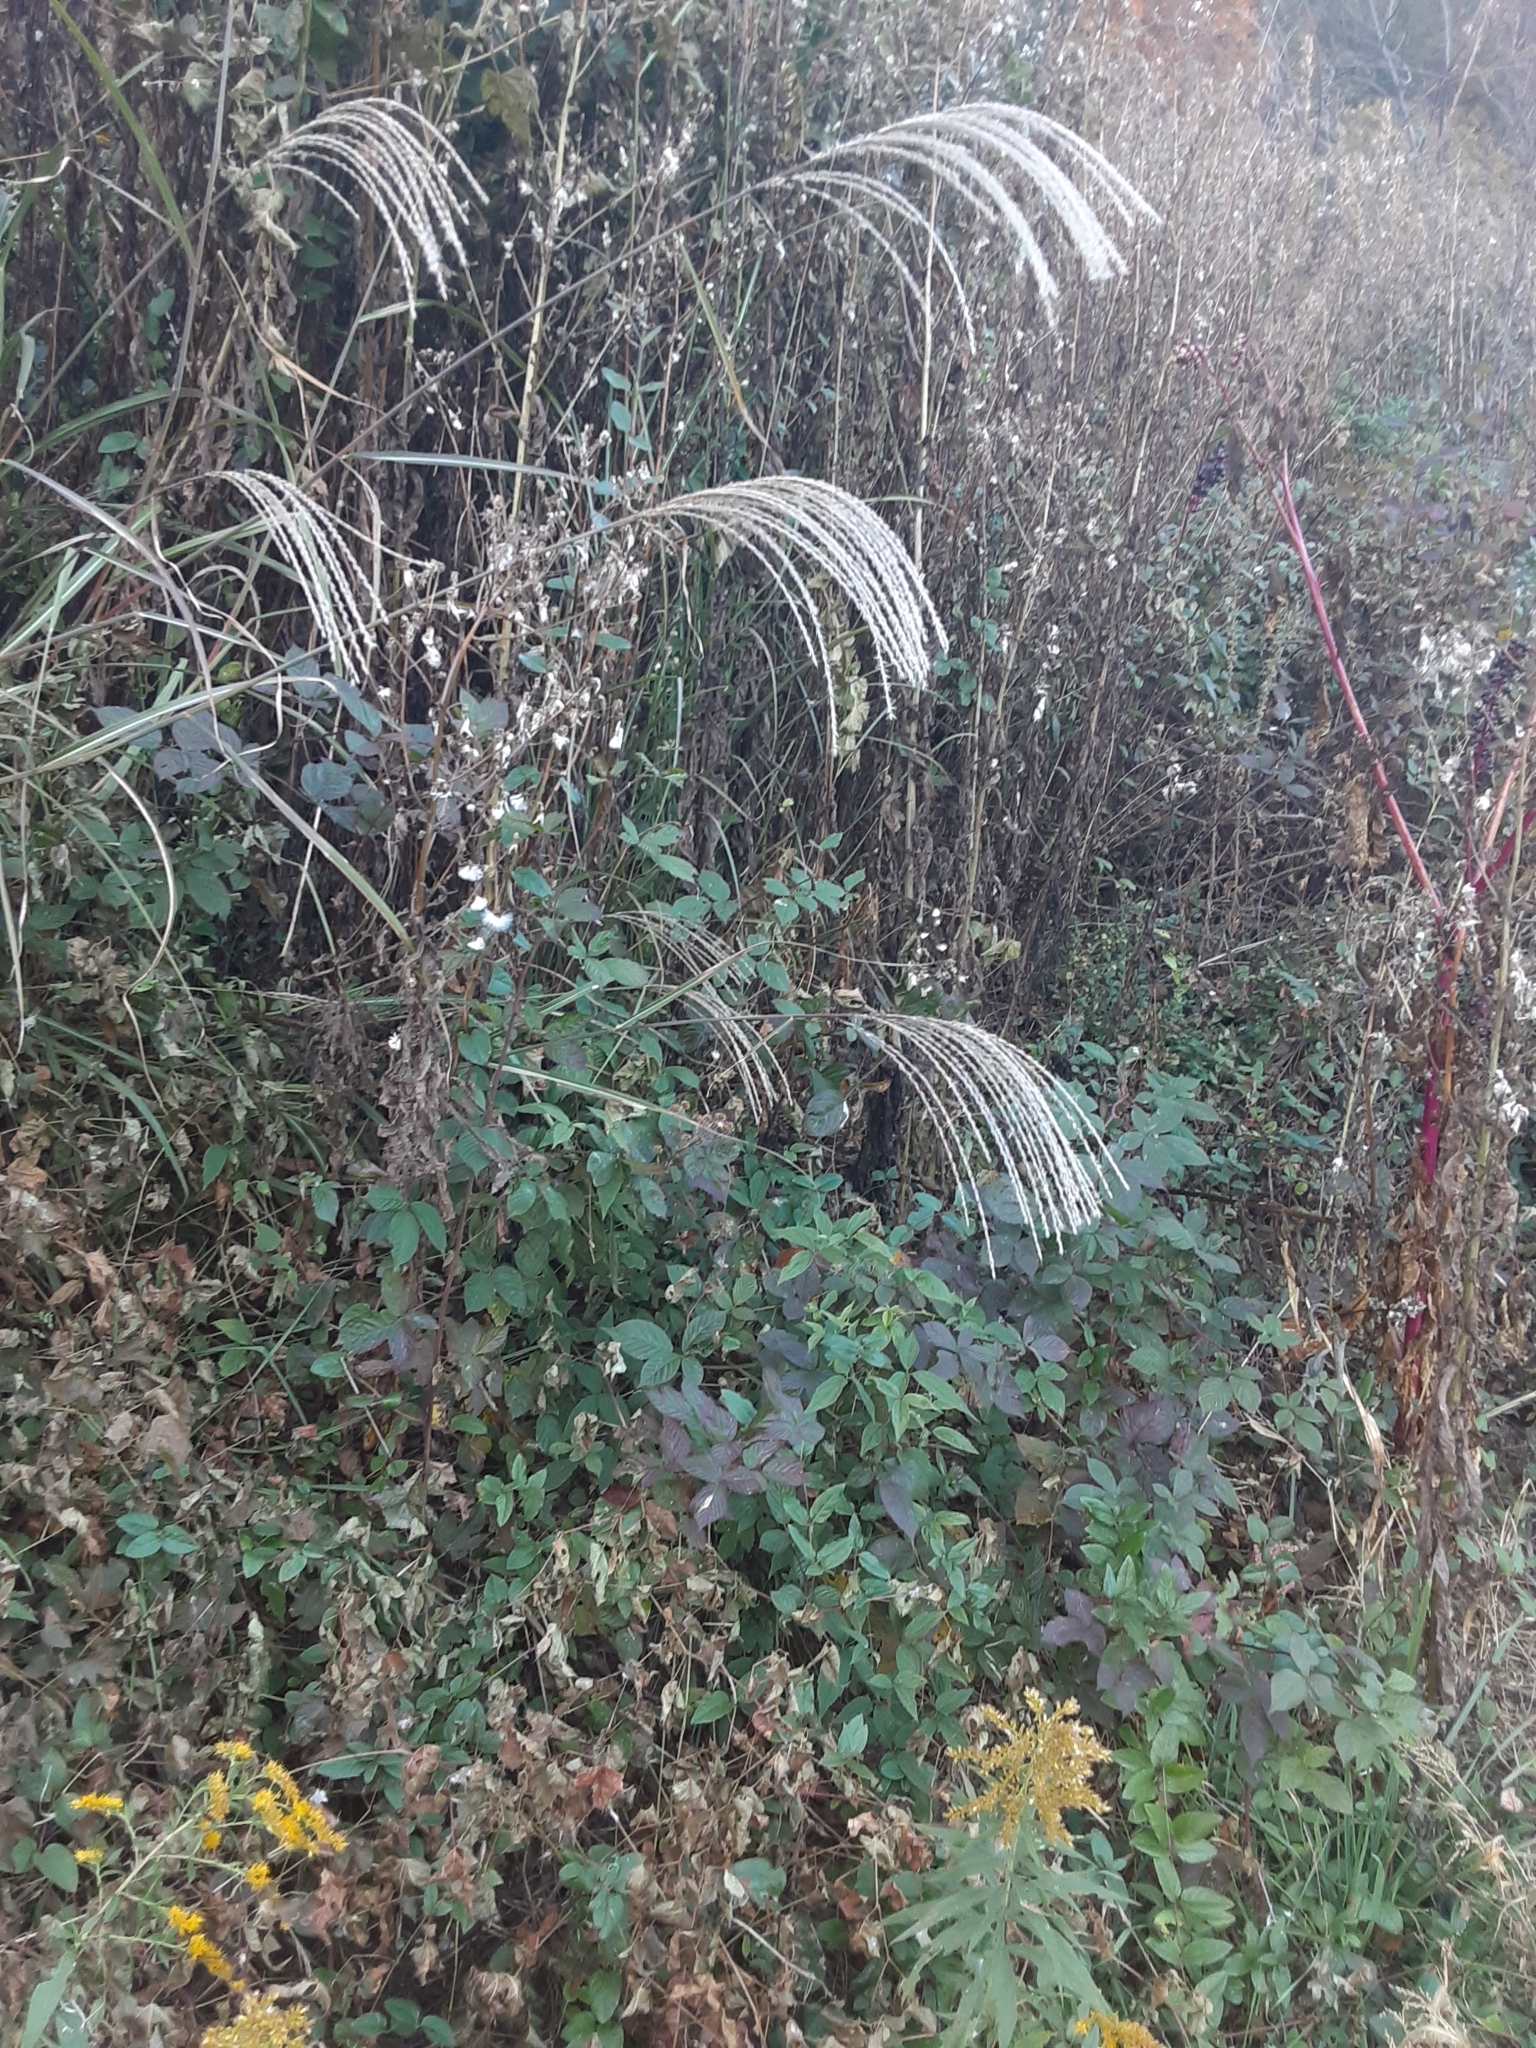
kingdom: Plantae
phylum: Tracheophyta
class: Liliopsida
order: Poales
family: Poaceae
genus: Miscanthus
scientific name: Miscanthus sinensis
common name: Chinese silvergrass
